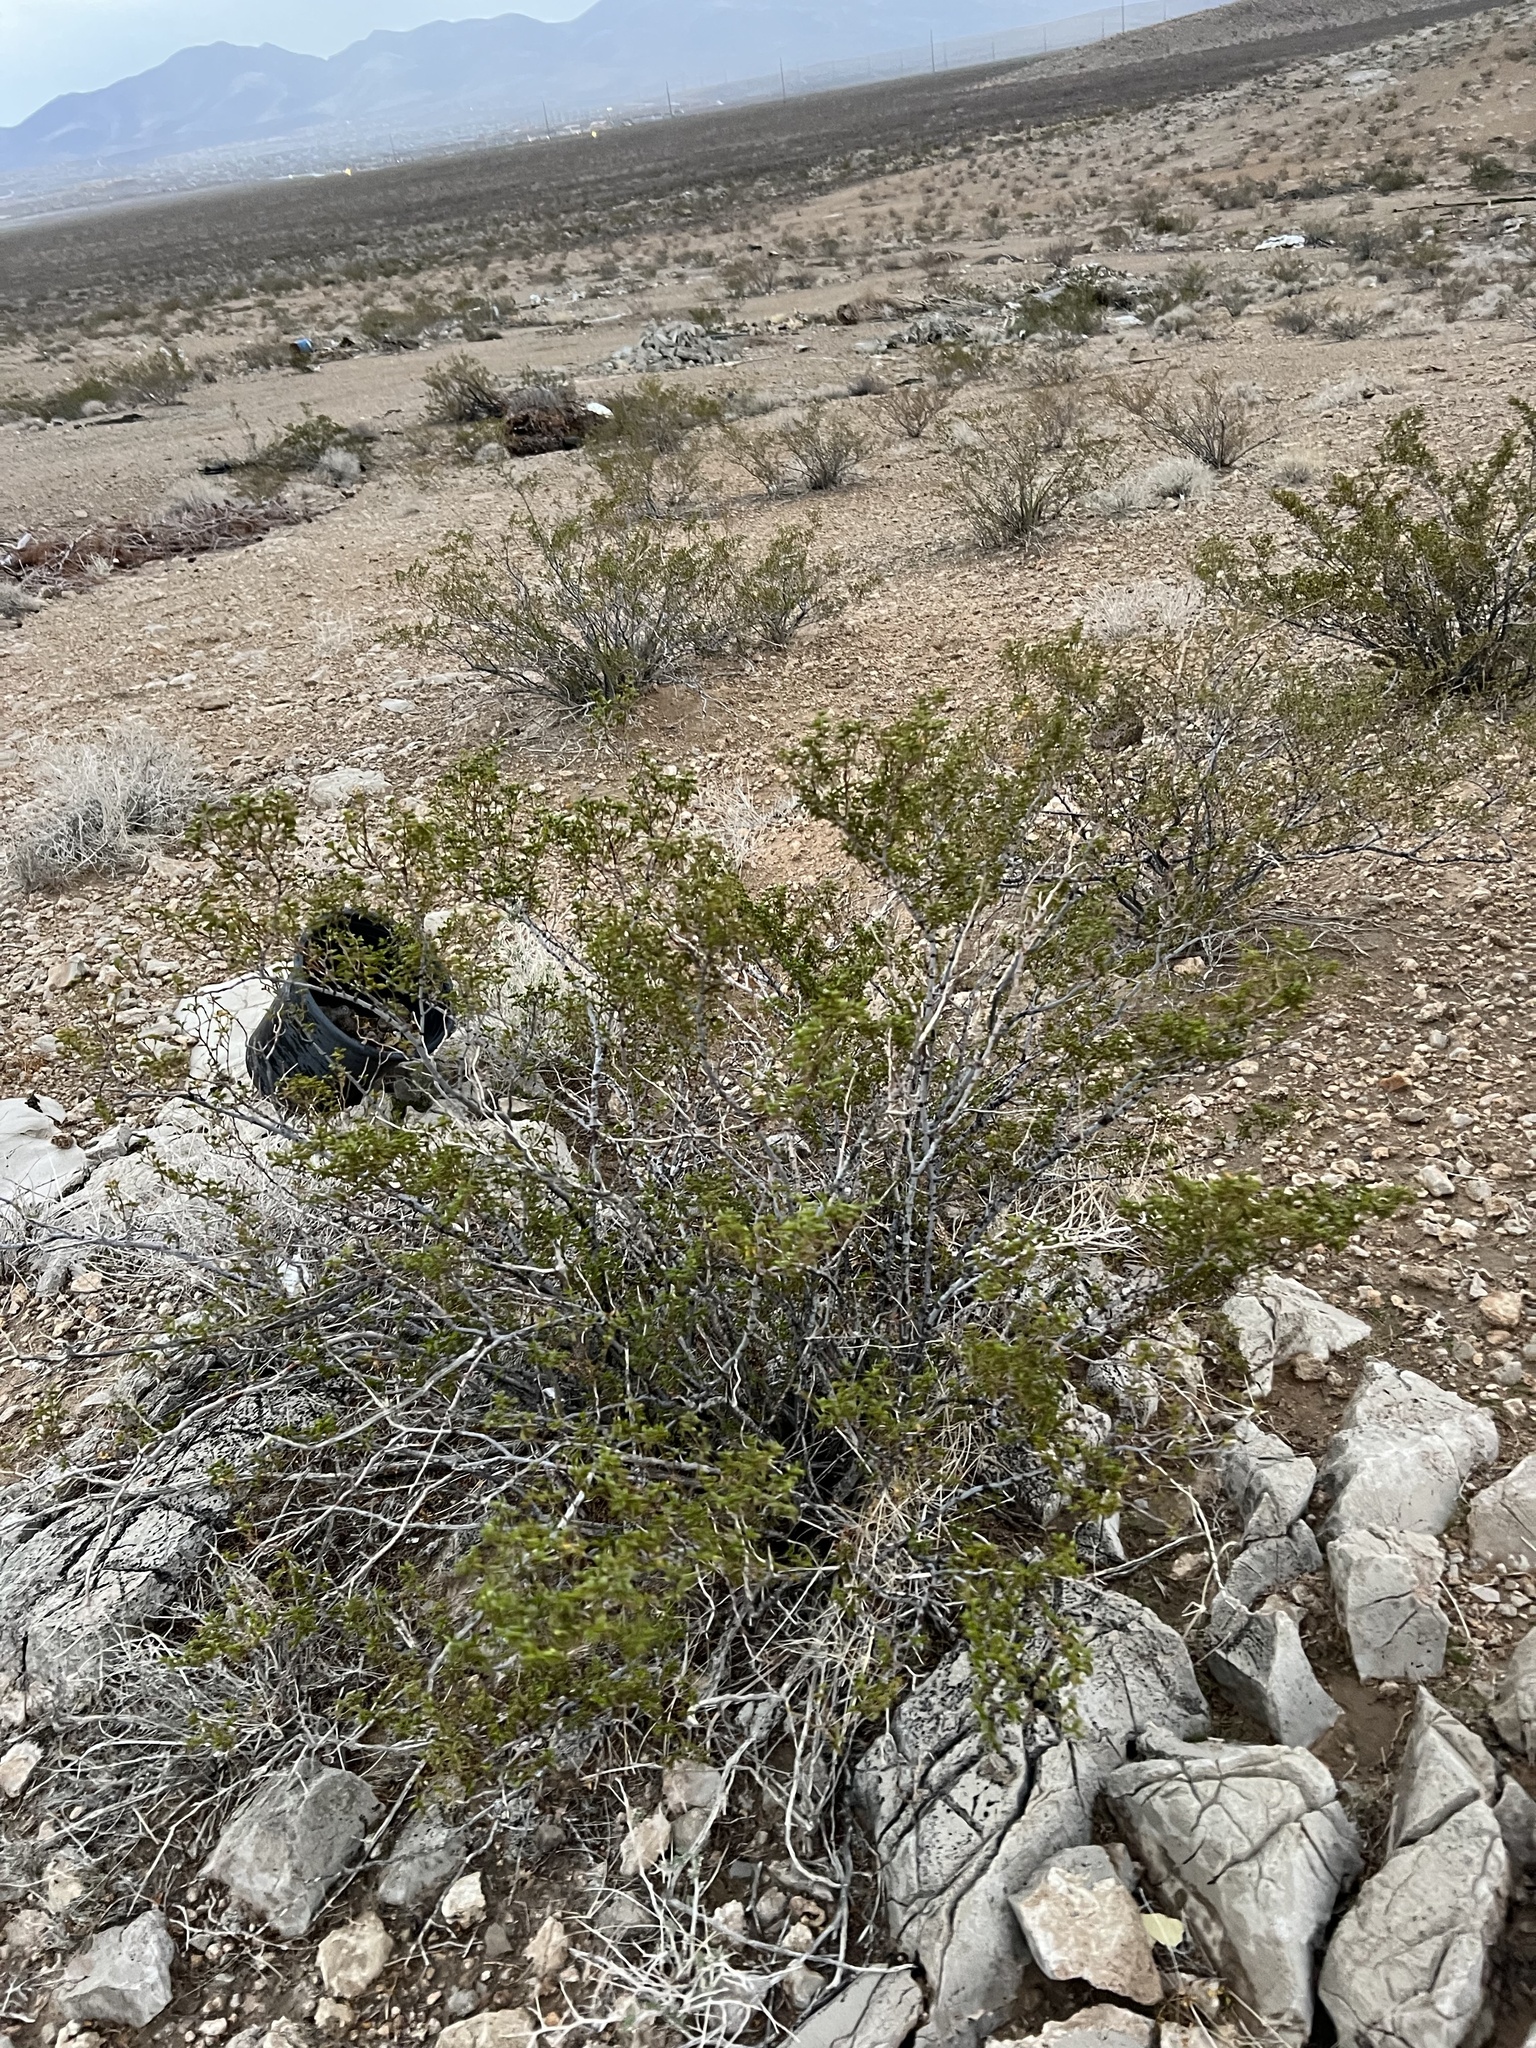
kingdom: Plantae
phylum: Tracheophyta
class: Magnoliopsida
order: Zygophyllales
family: Zygophyllaceae
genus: Larrea
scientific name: Larrea tridentata
